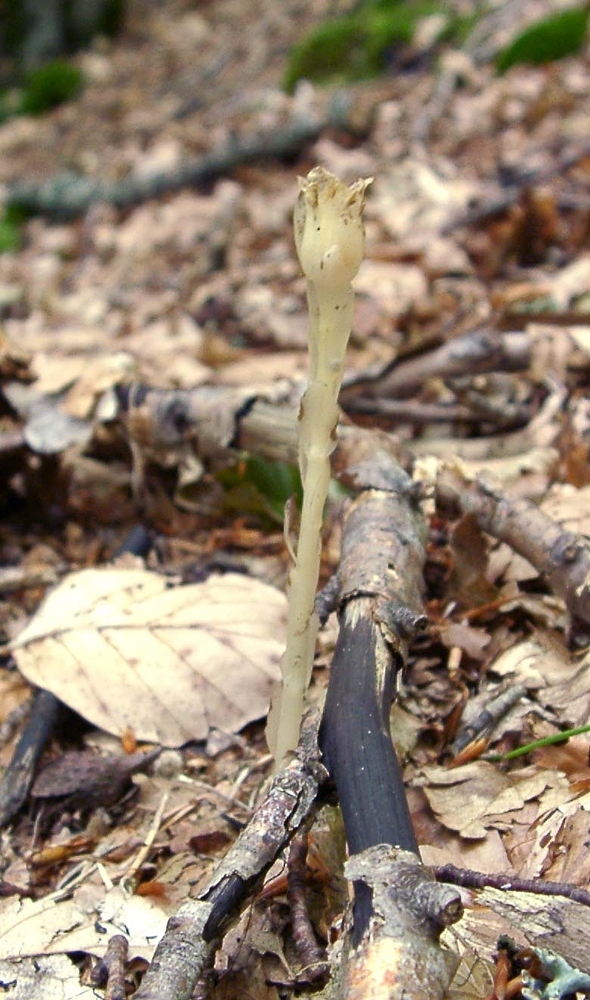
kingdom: Plantae
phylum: Tracheophyta
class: Magnoliopsida
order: Ericales
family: Ericaceae
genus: Hypopitys
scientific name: Hypopitys monotropa
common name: Yellow bird's-nest
